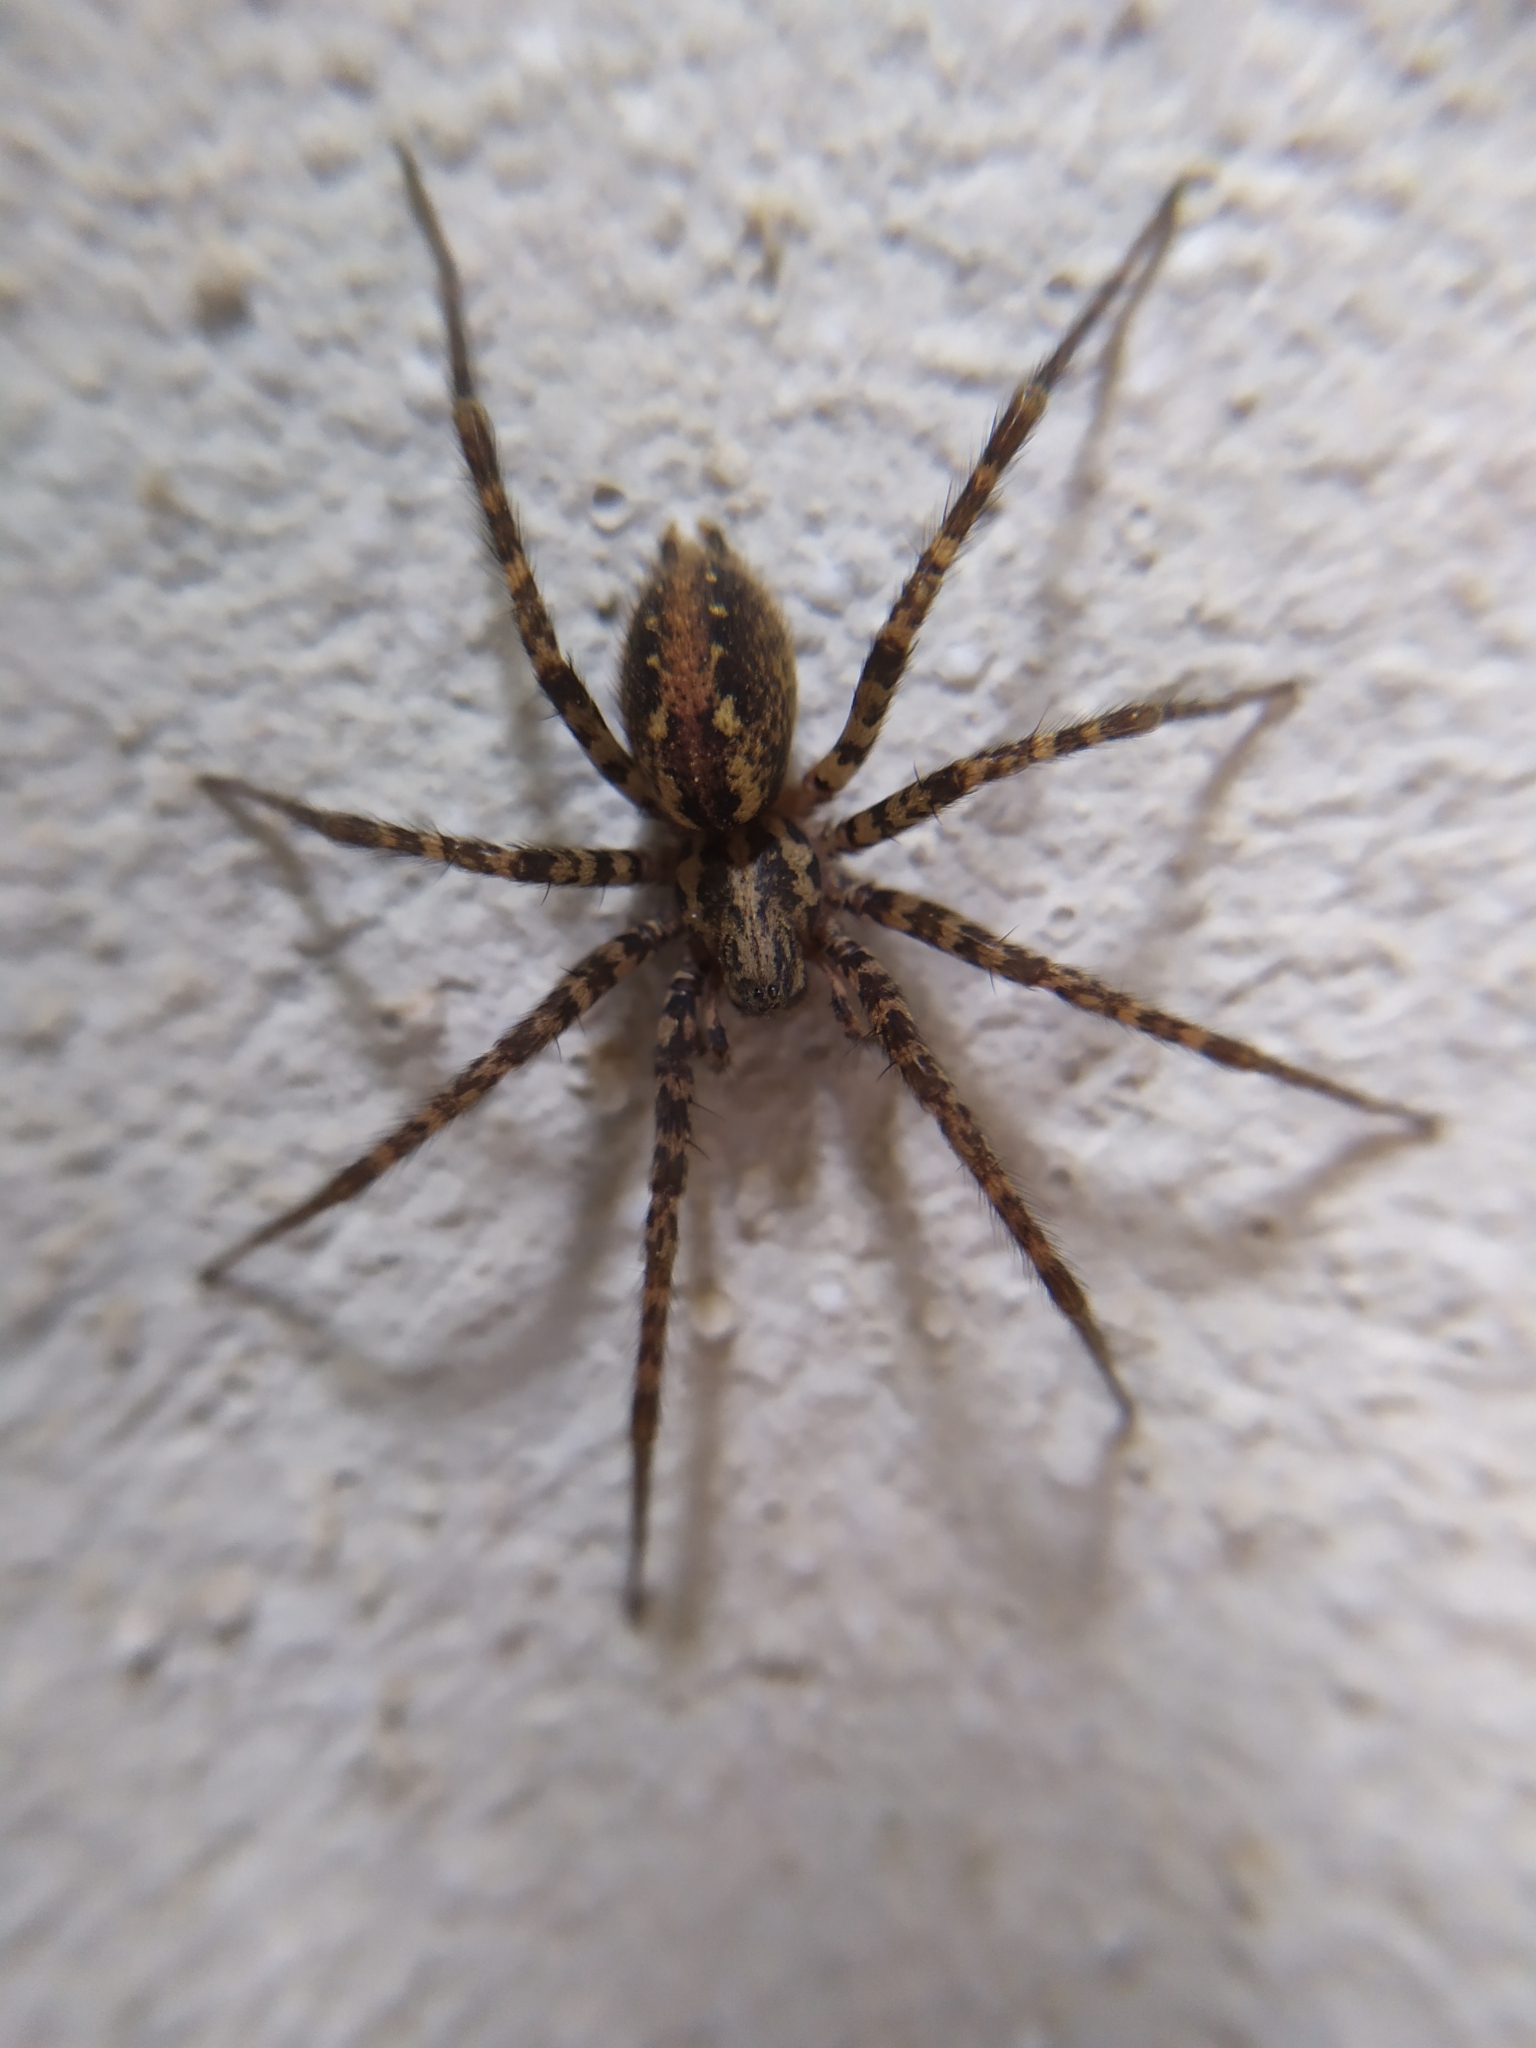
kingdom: Animalia
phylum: Arthropoda
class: Arachnida
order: Araneae
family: Agelenidae
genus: Tegenaria
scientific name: Tegenaria ferruginea
